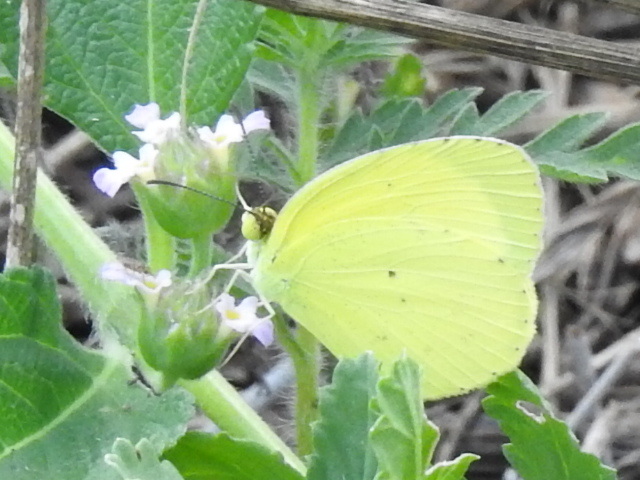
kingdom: Animalia
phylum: Arthropoda
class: Insecta
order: Lepidoptera
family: Pieridae
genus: Pyrisitia
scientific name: Pyrisitia lisa
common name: Little yellow
